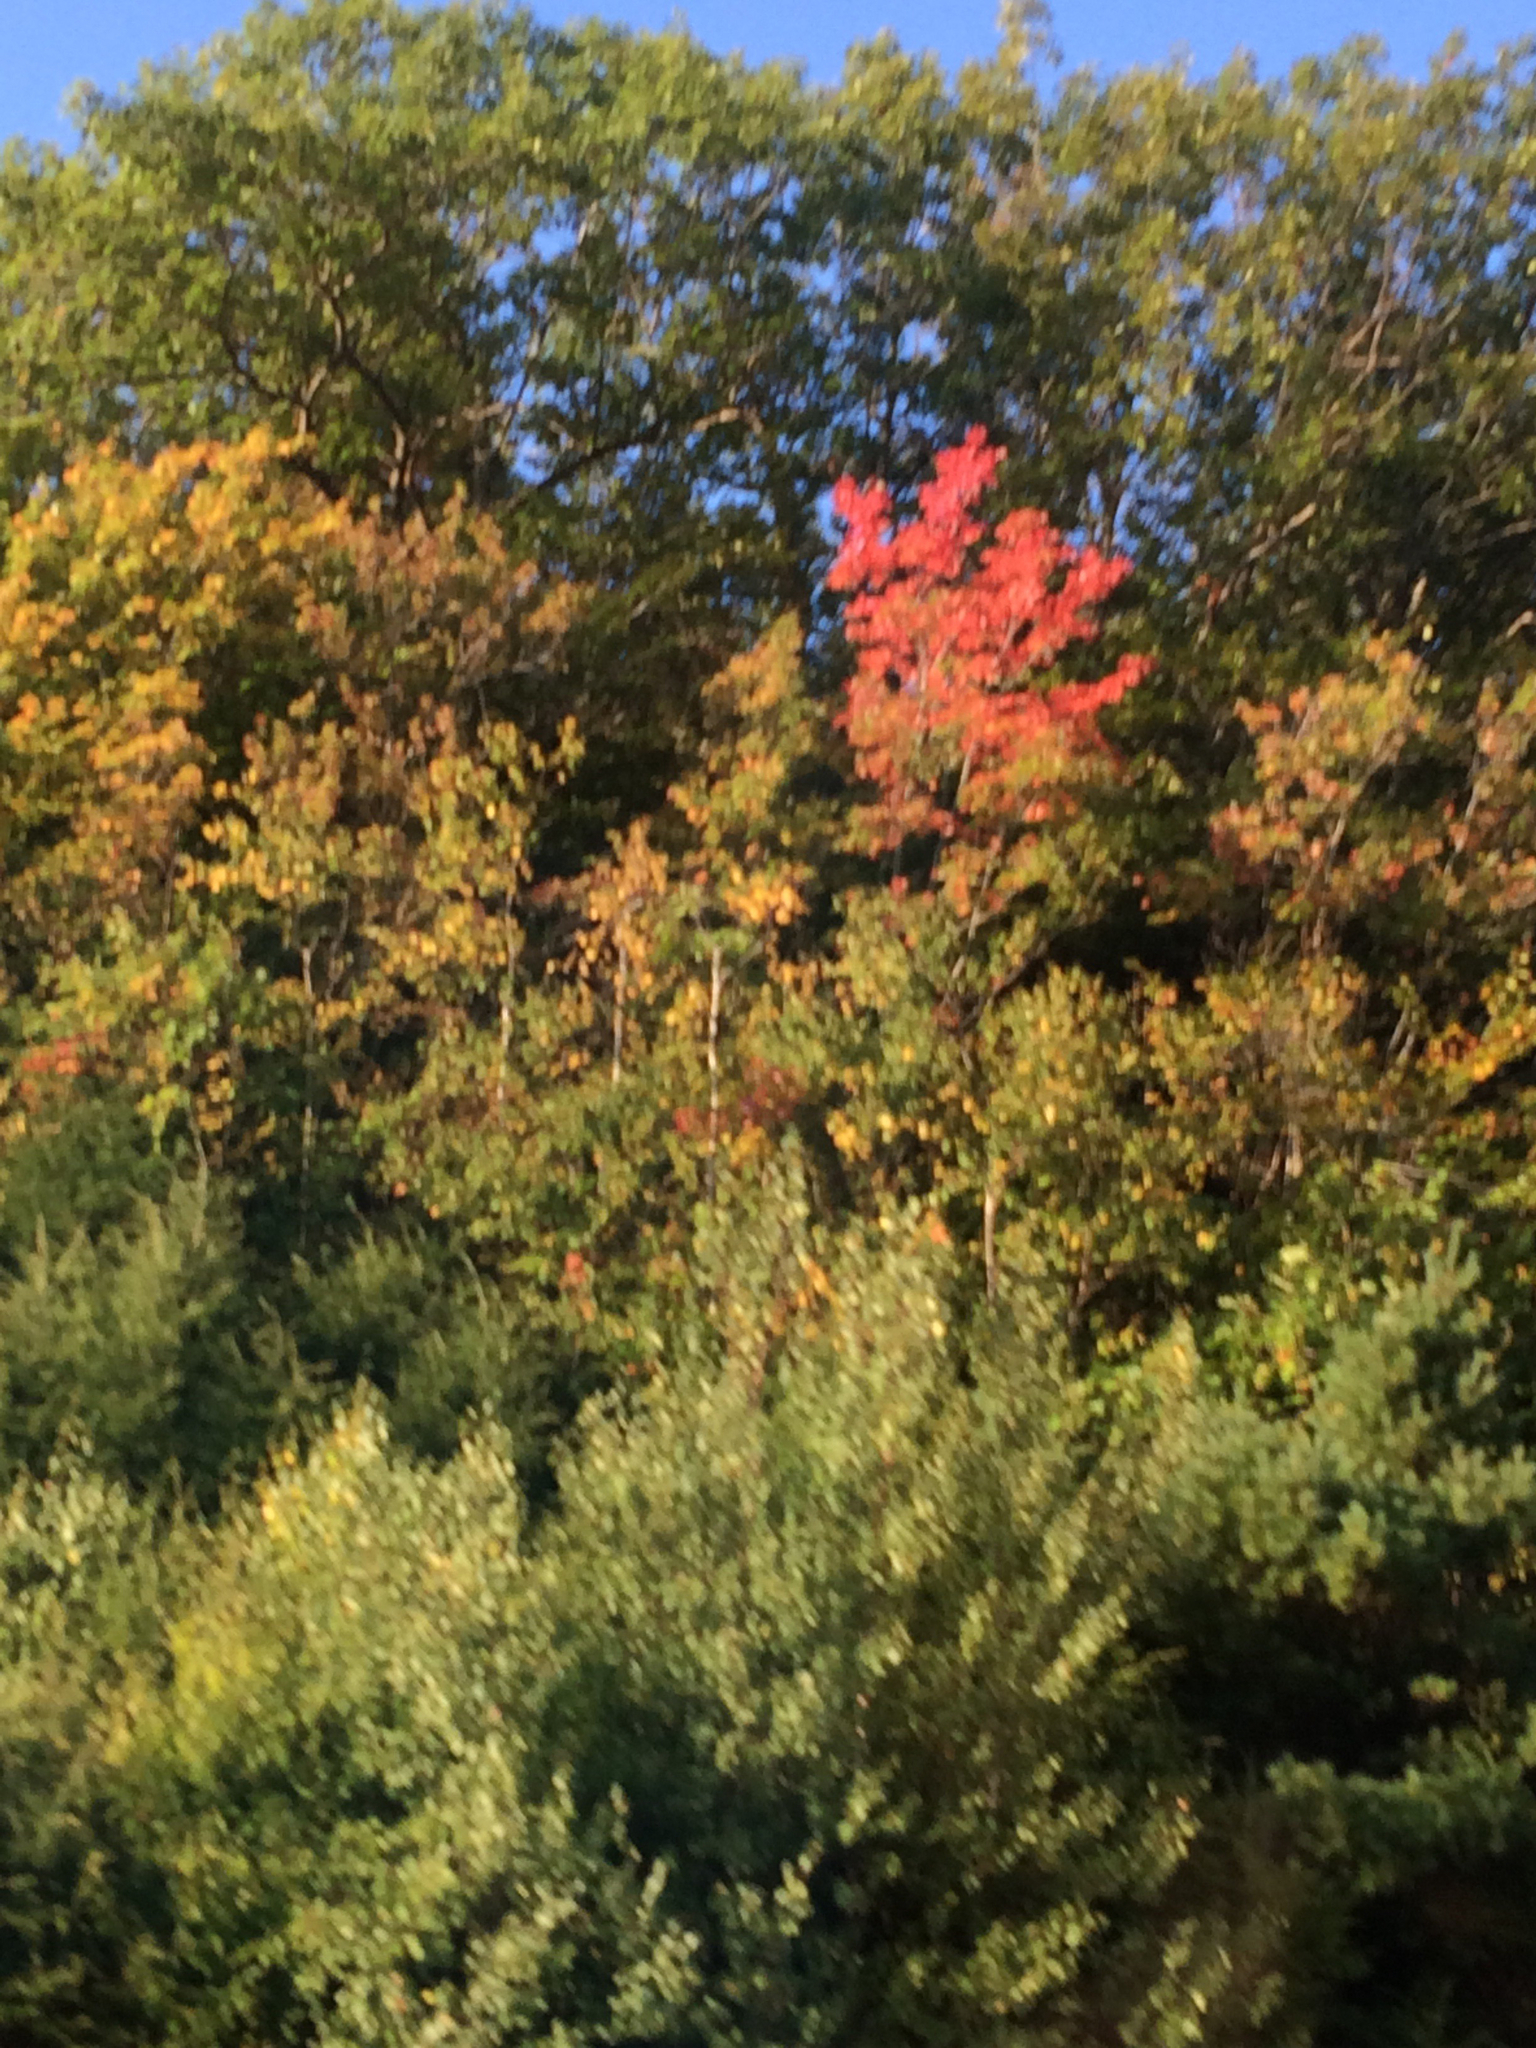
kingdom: Plantae
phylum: Tracheophyta
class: Magnoliopsida
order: Sapindales
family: Sapindaceae
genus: Acer
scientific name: Acer rubrum
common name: Red maple
